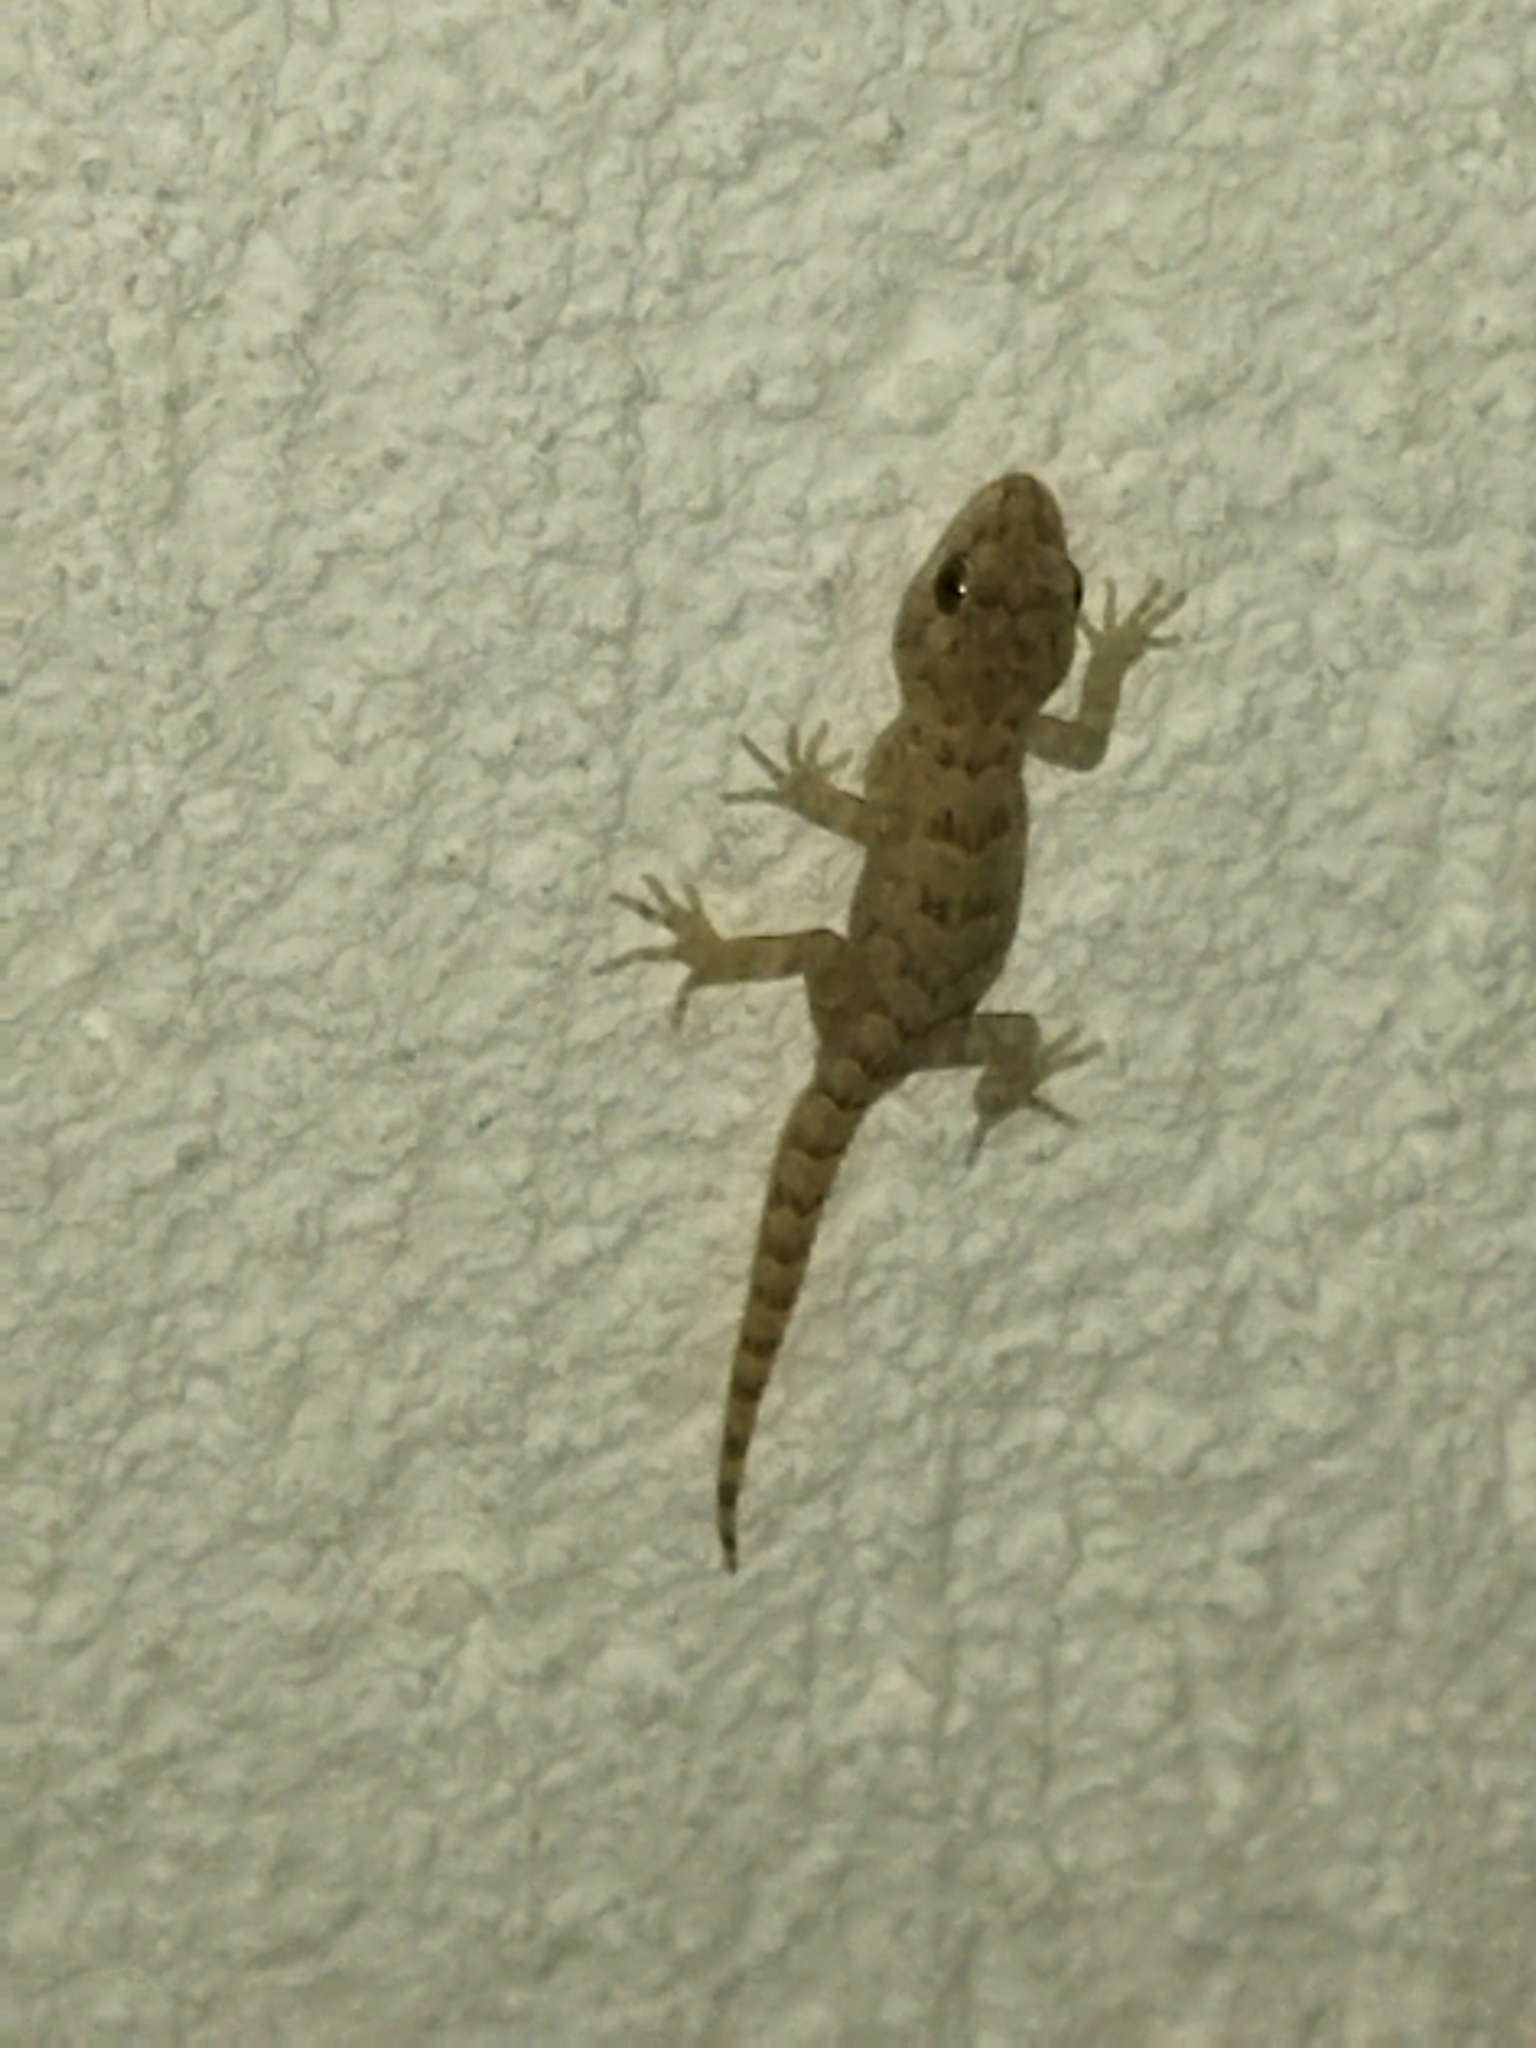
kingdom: Animalia
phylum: Chordata
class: Squamata
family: Gekkonidae
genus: Mediodactylus
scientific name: Mediodactylus kotschyi
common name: Kotschy's gecko
